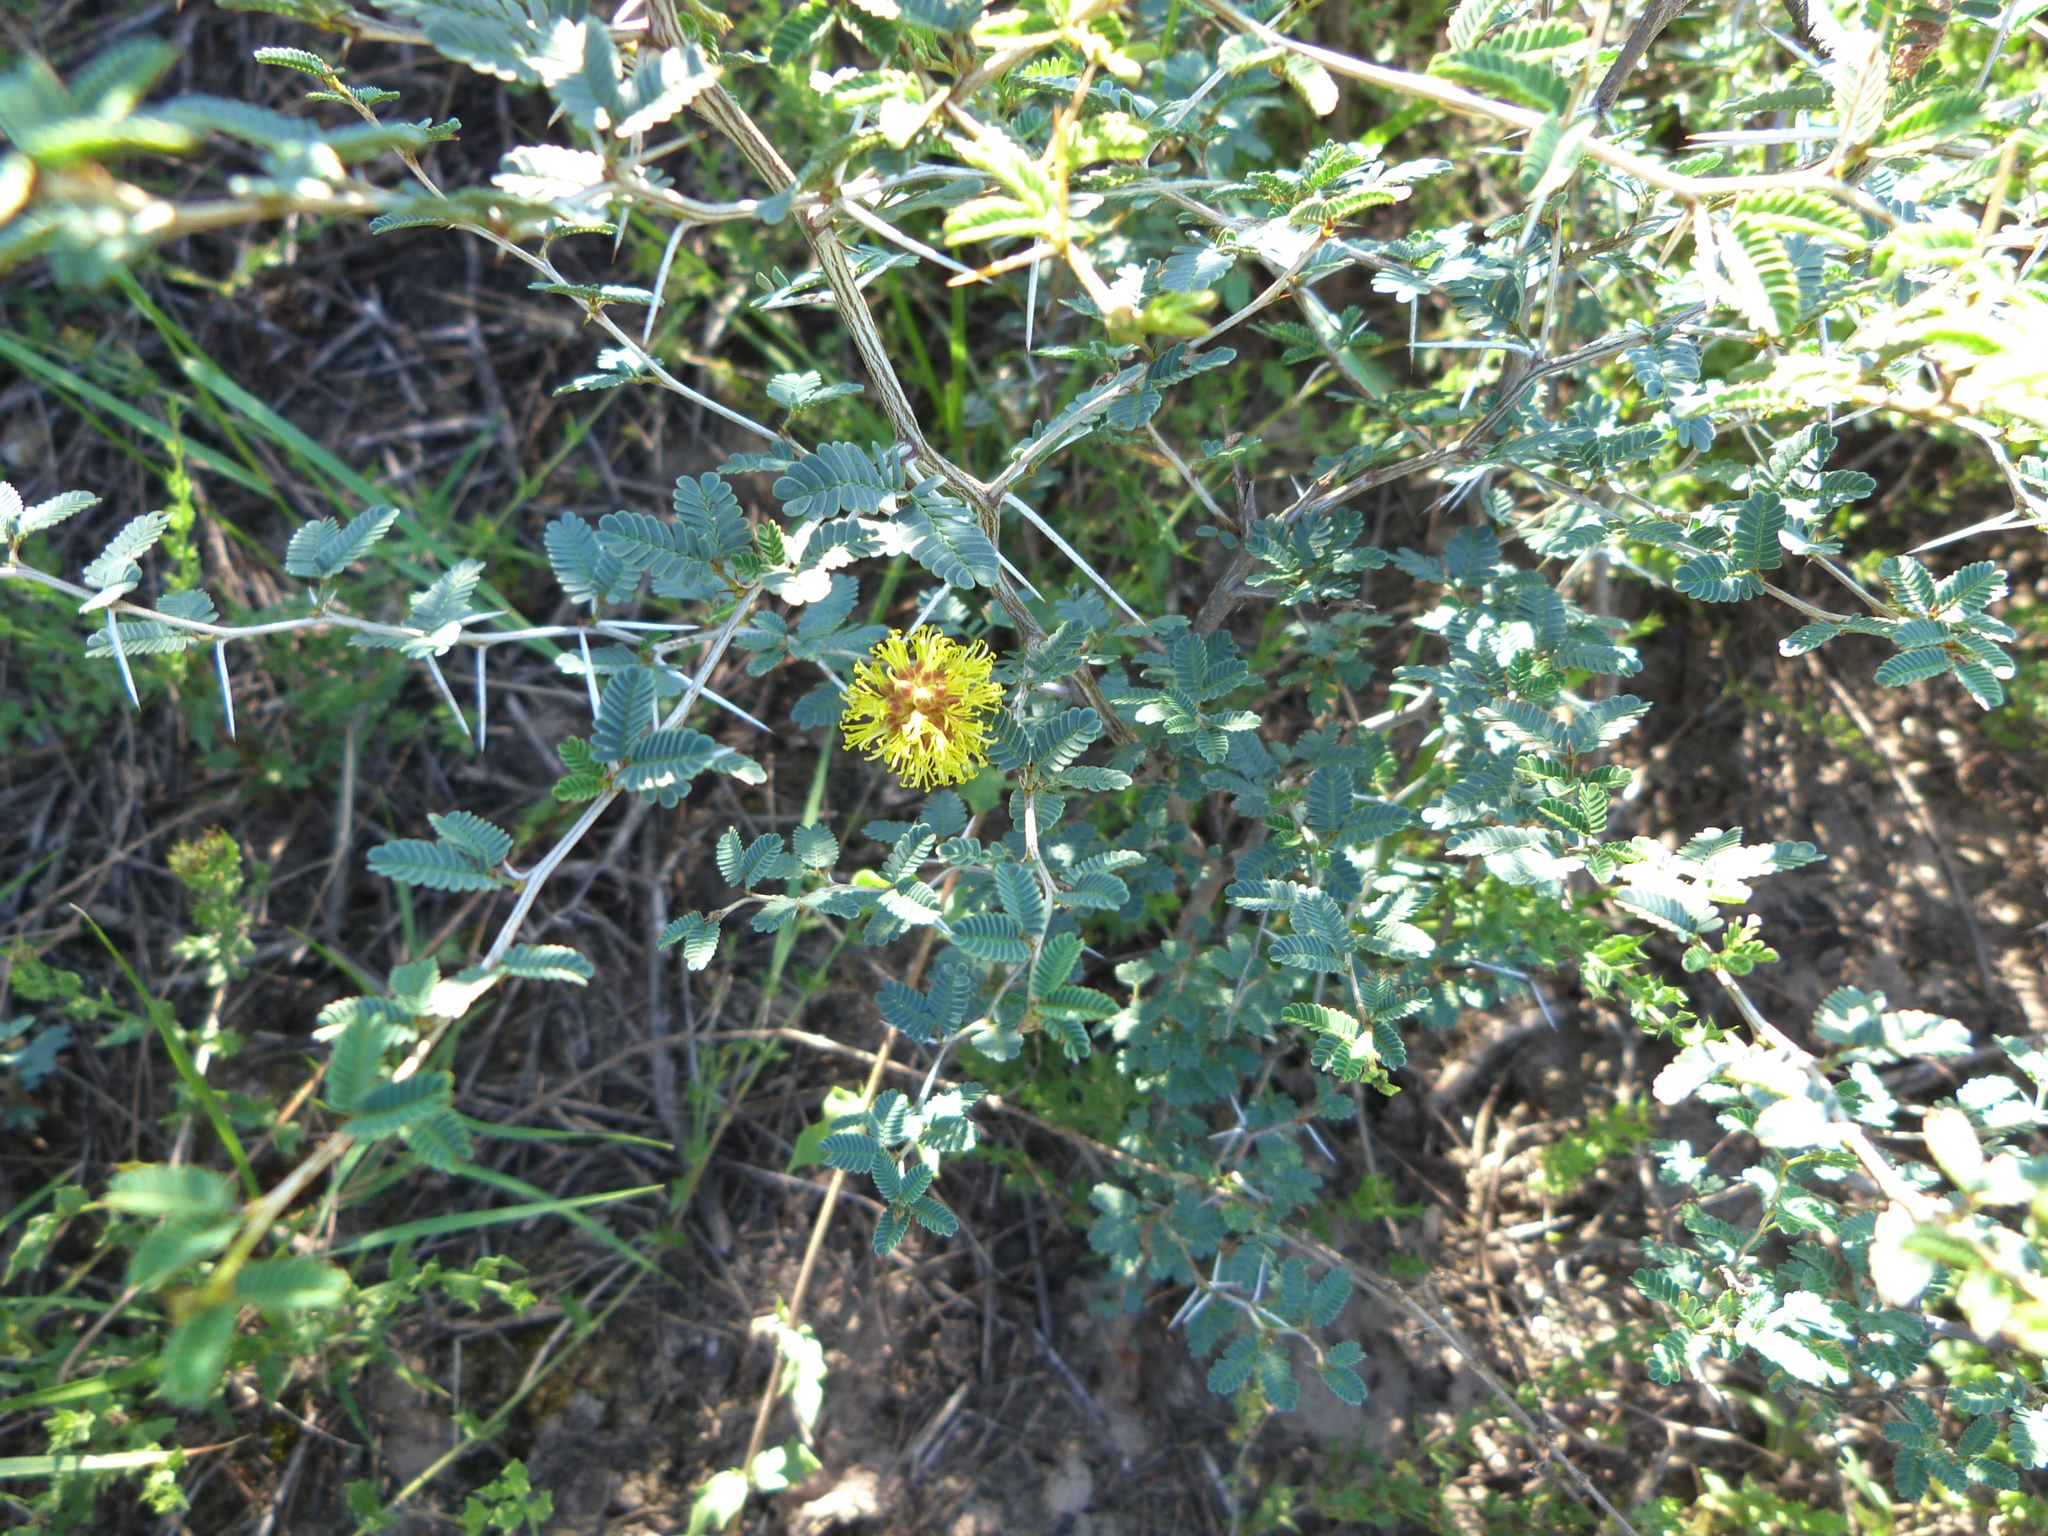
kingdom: Plantae
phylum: Tracheophyta
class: Magnoliopsida
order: Fabales
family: Fabaceae
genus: Prosopis
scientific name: Prosopis reptans
